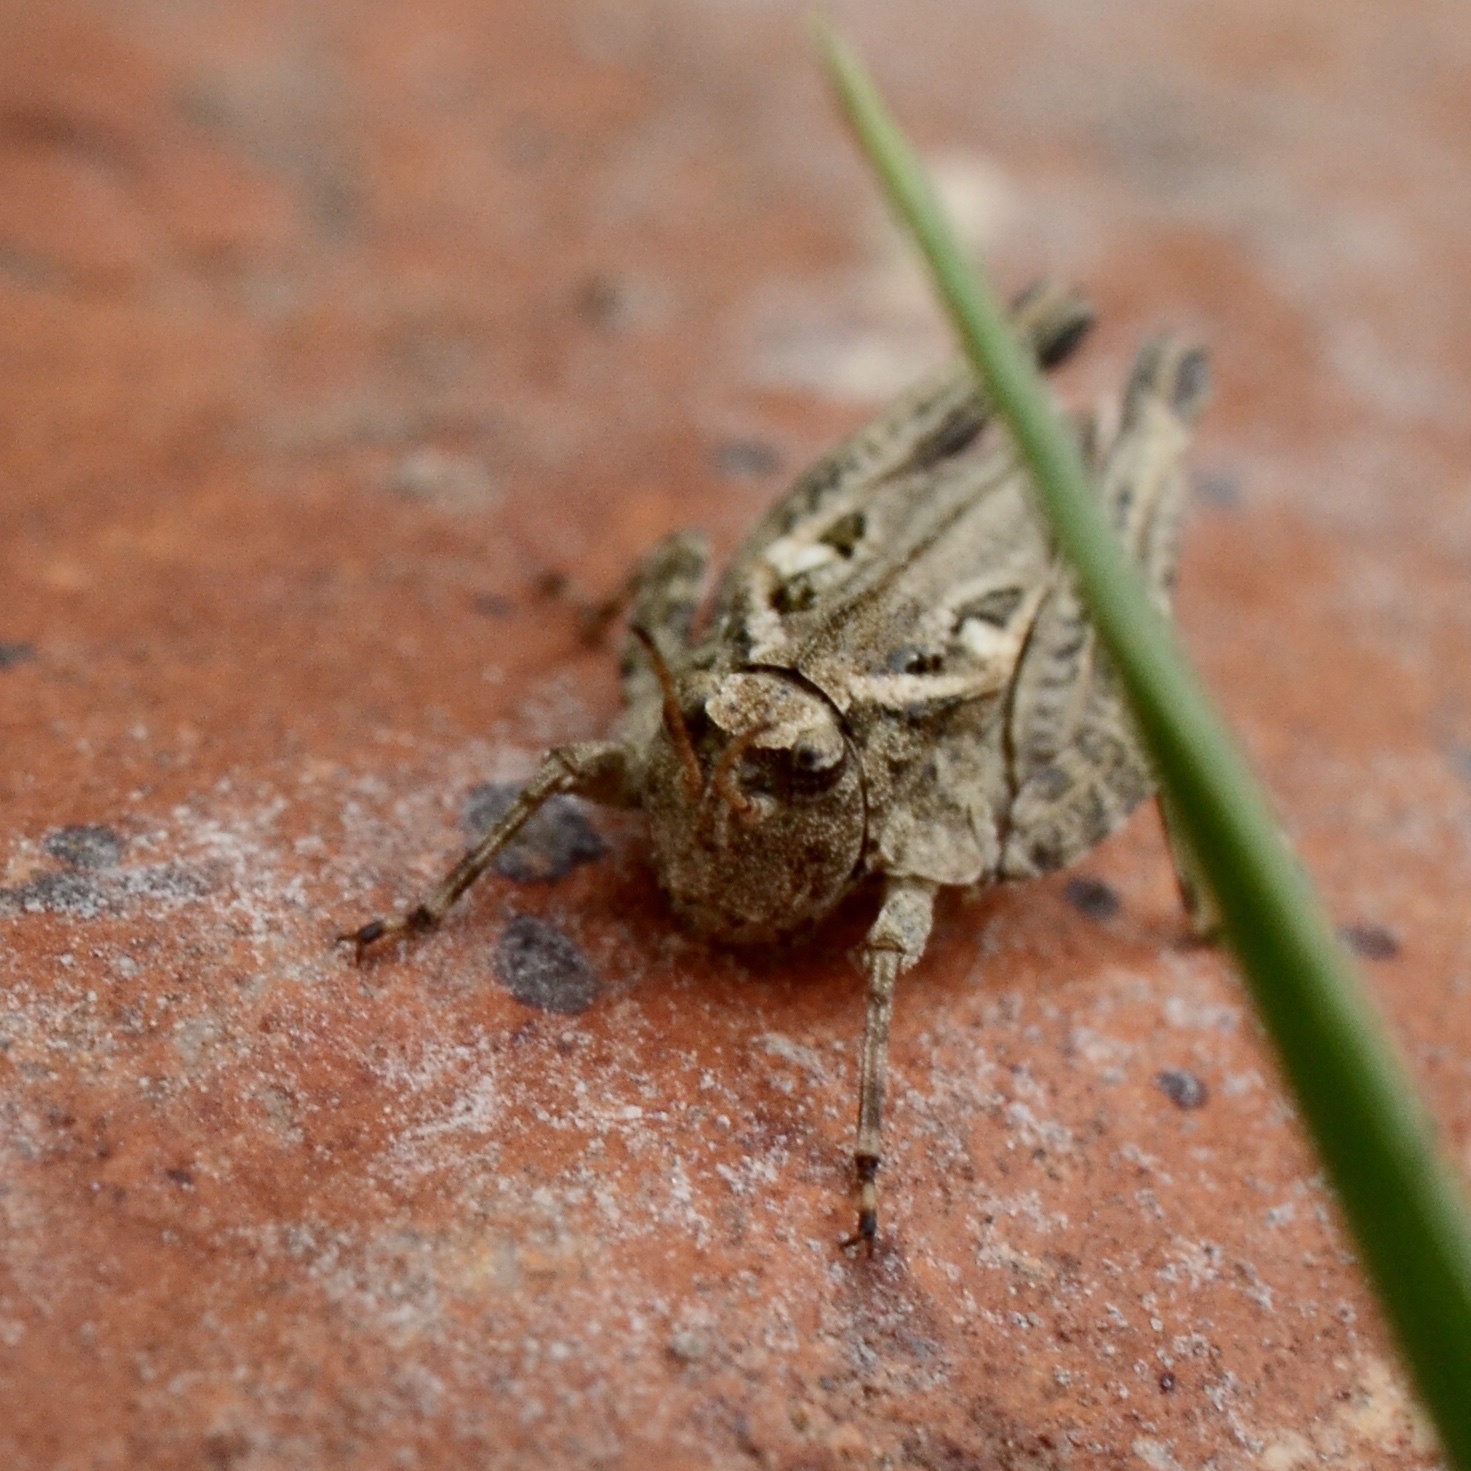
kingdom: Animalia
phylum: Arthropoda
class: Insecta
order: Orthoptera
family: Tetrigidae
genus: Tetrix
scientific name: Tetrix
